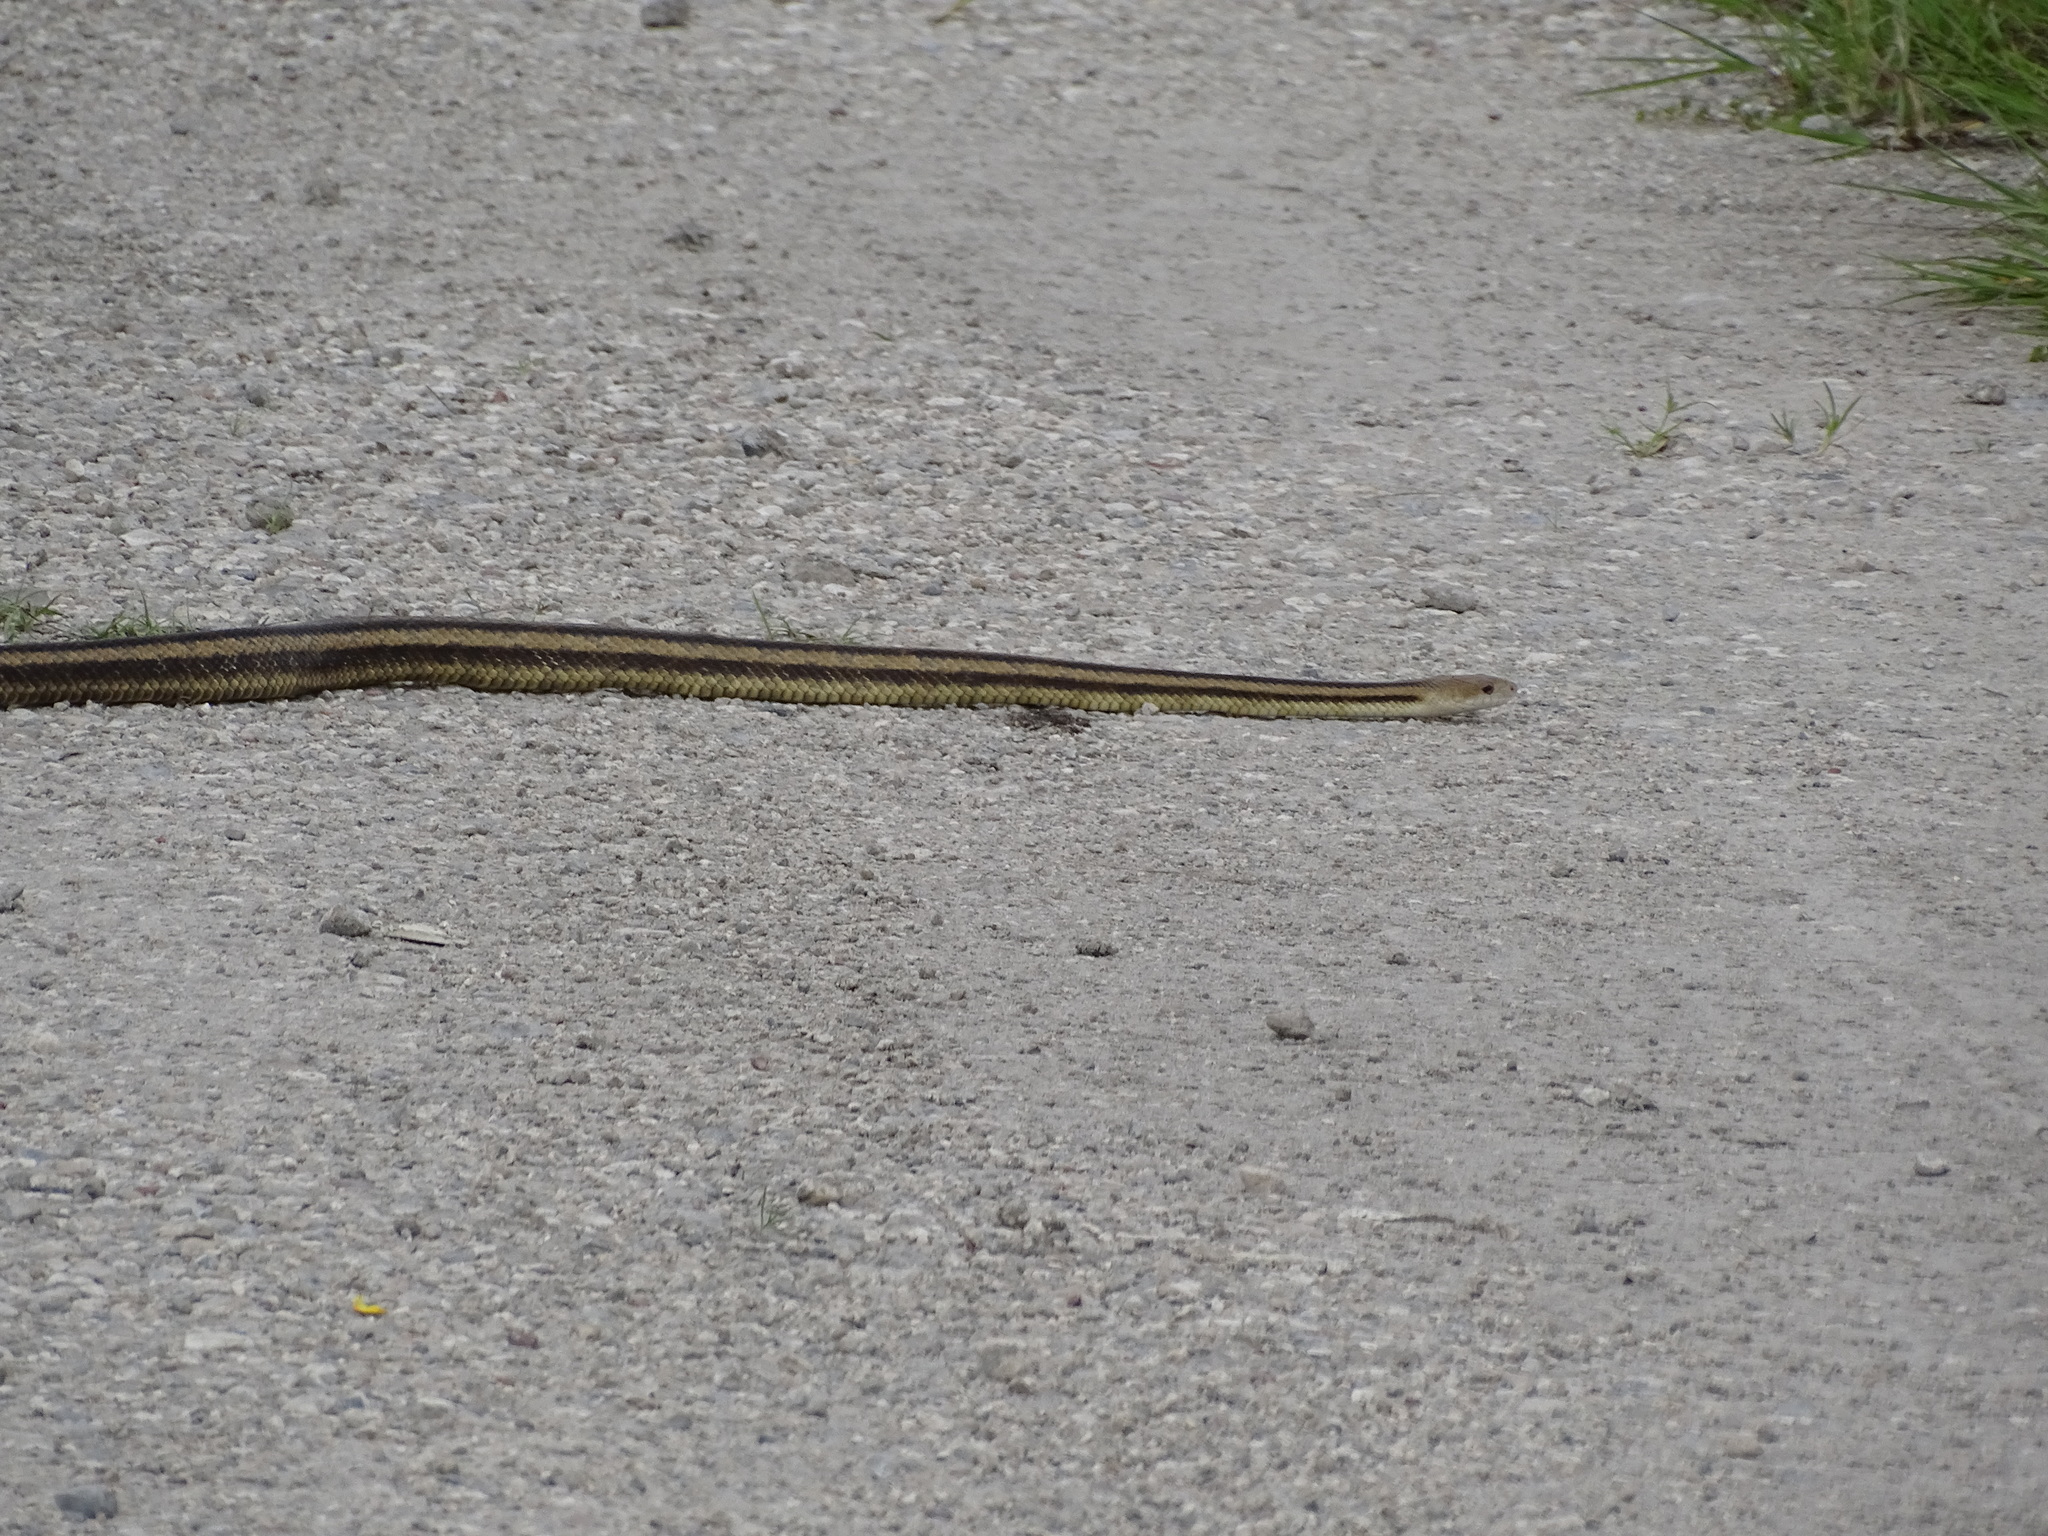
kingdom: Animalia
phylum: Chordata
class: Squamata
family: Colubridae
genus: Pantherophis
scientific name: Pantherophis alleghaniensis
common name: Eastern rat snake
